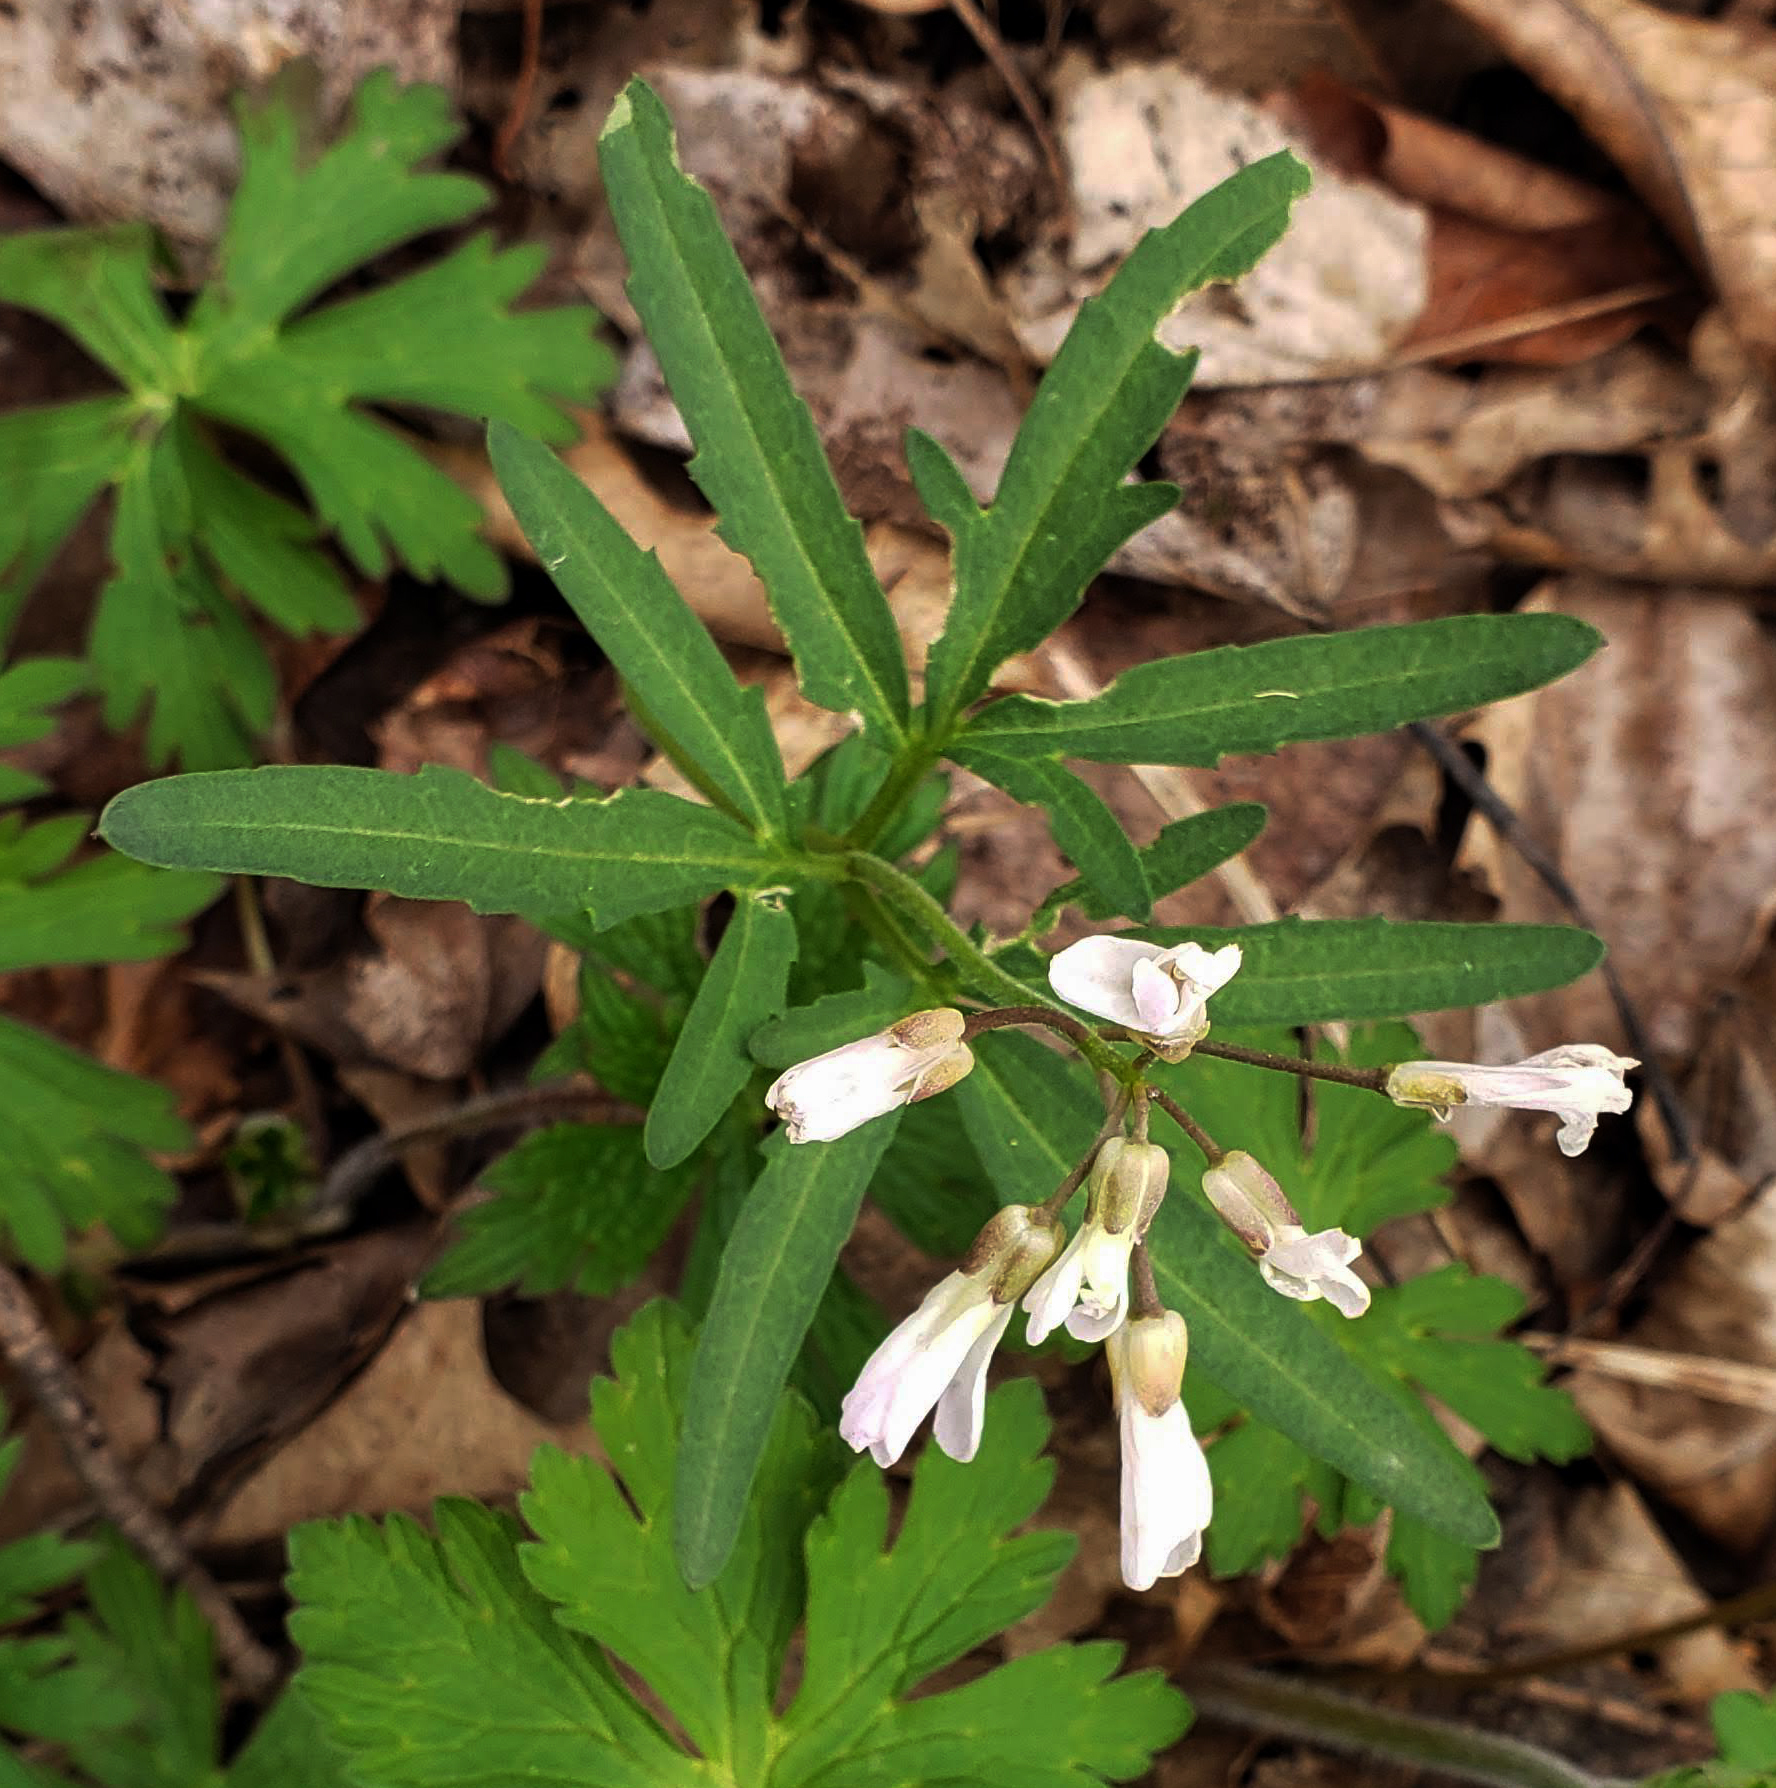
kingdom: Plantae
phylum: Tracheophyta
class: Magnoliopsida
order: Brassicales
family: Brassicaceae
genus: Cardamine
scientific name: Cardamine concatenata
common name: Cut-leaf toothcup
